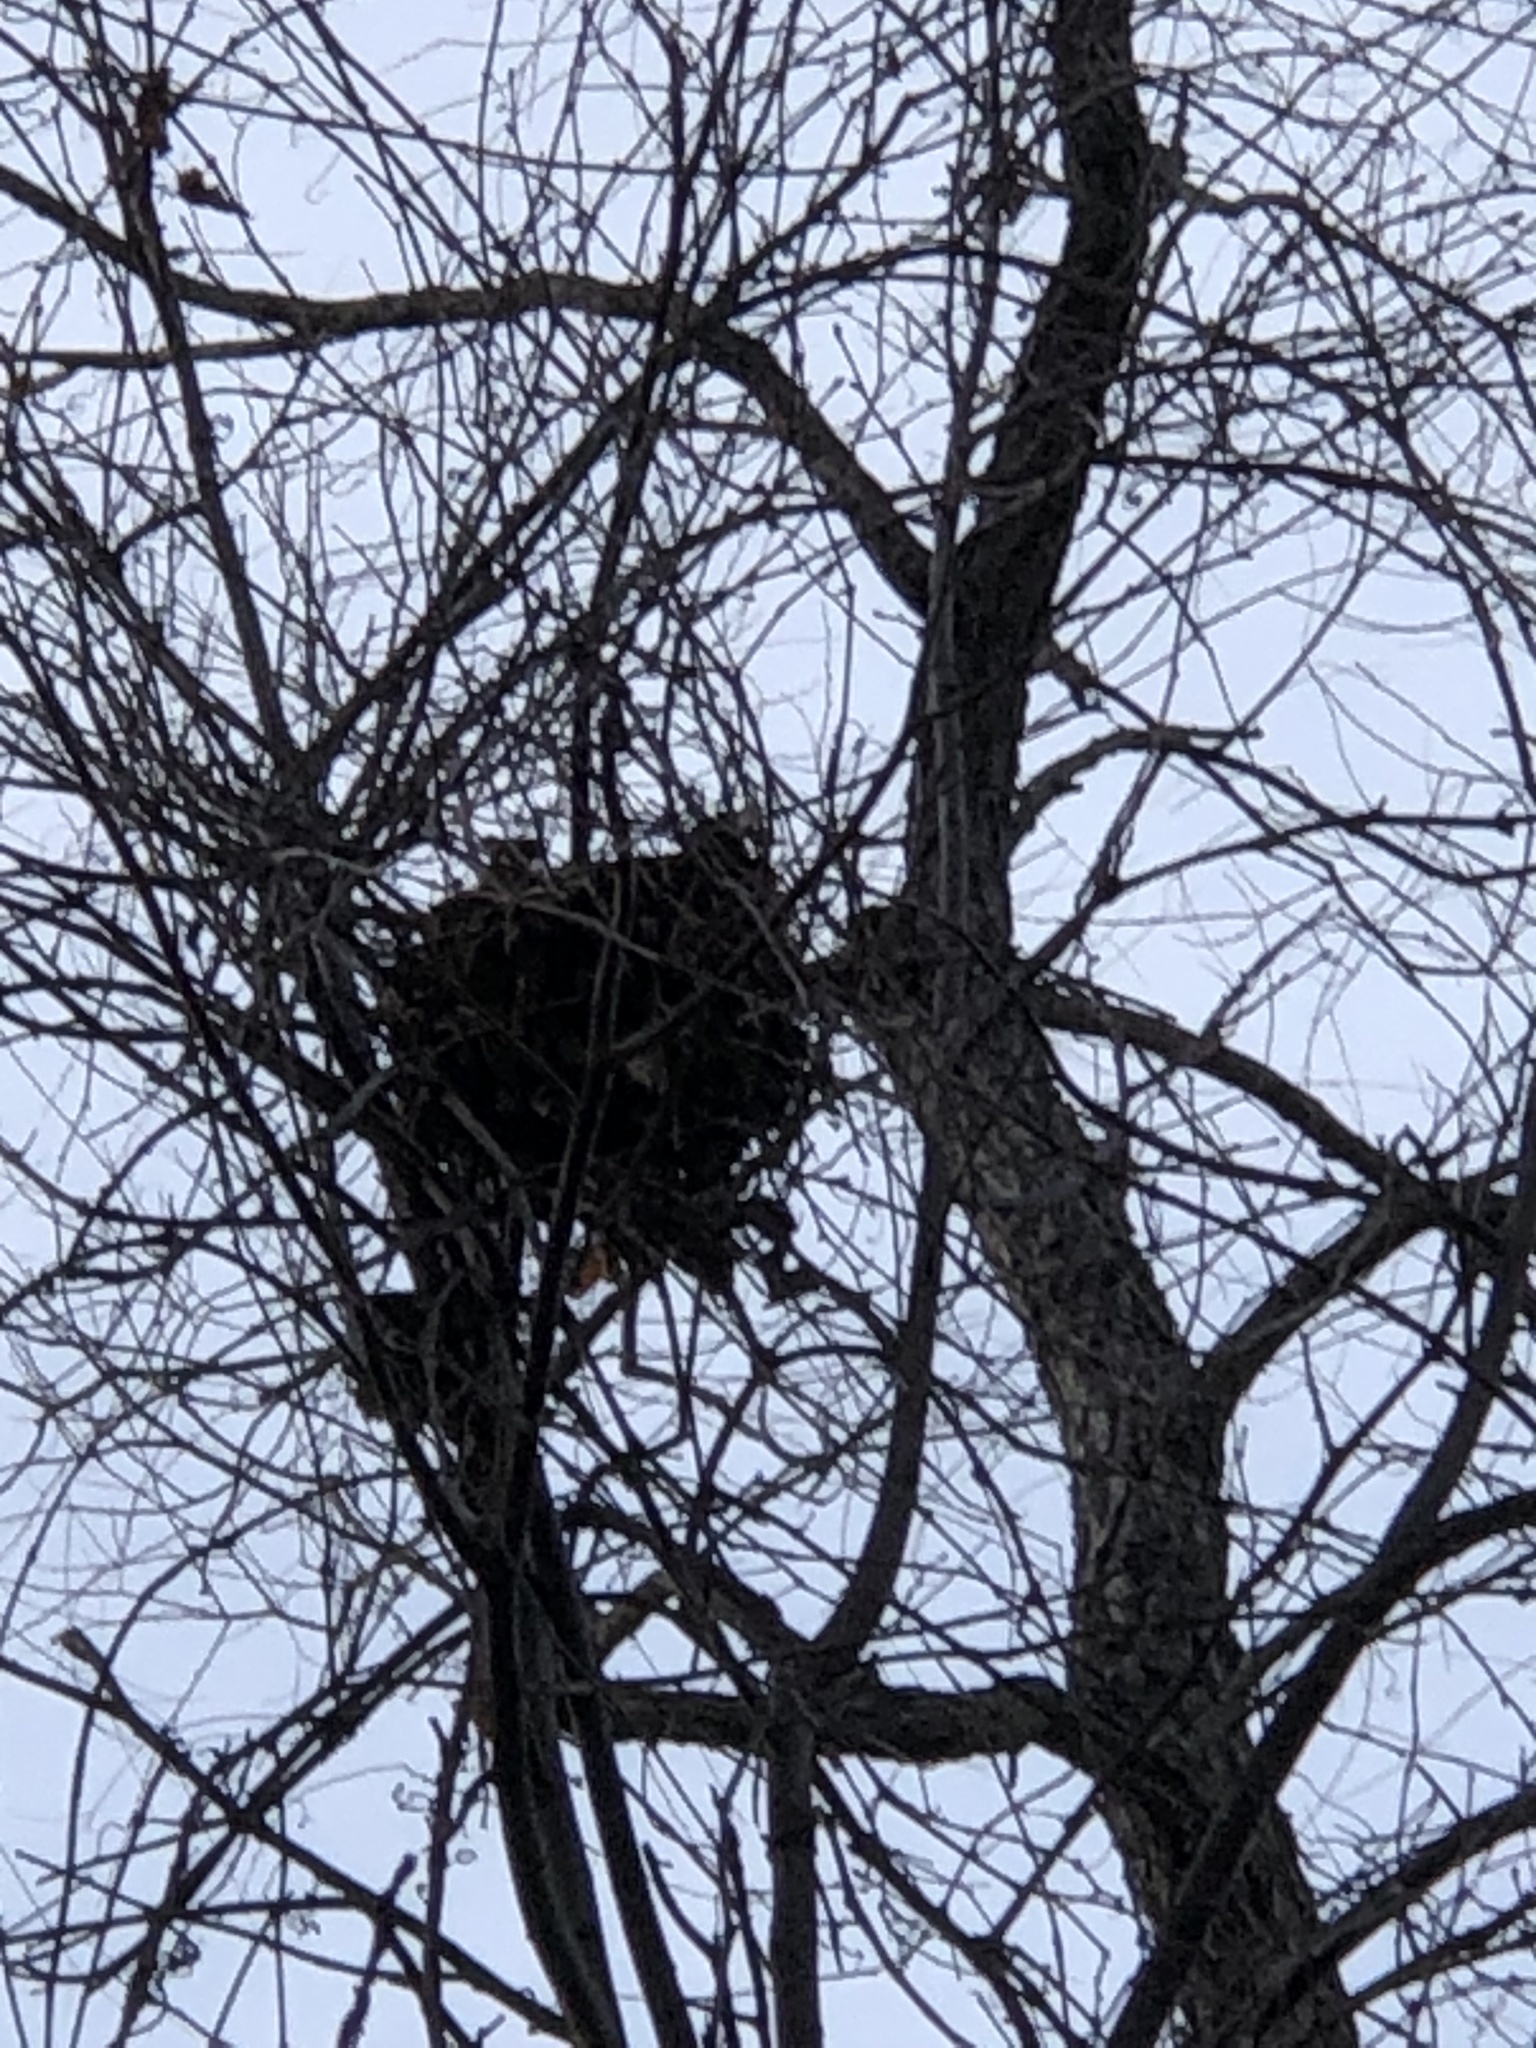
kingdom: Animalia
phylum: Chordata
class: Mammalia
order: Rodentia
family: Sciuridae
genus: Sciurus
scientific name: Sciurus carolinensis
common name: Eastern gray squirrel
